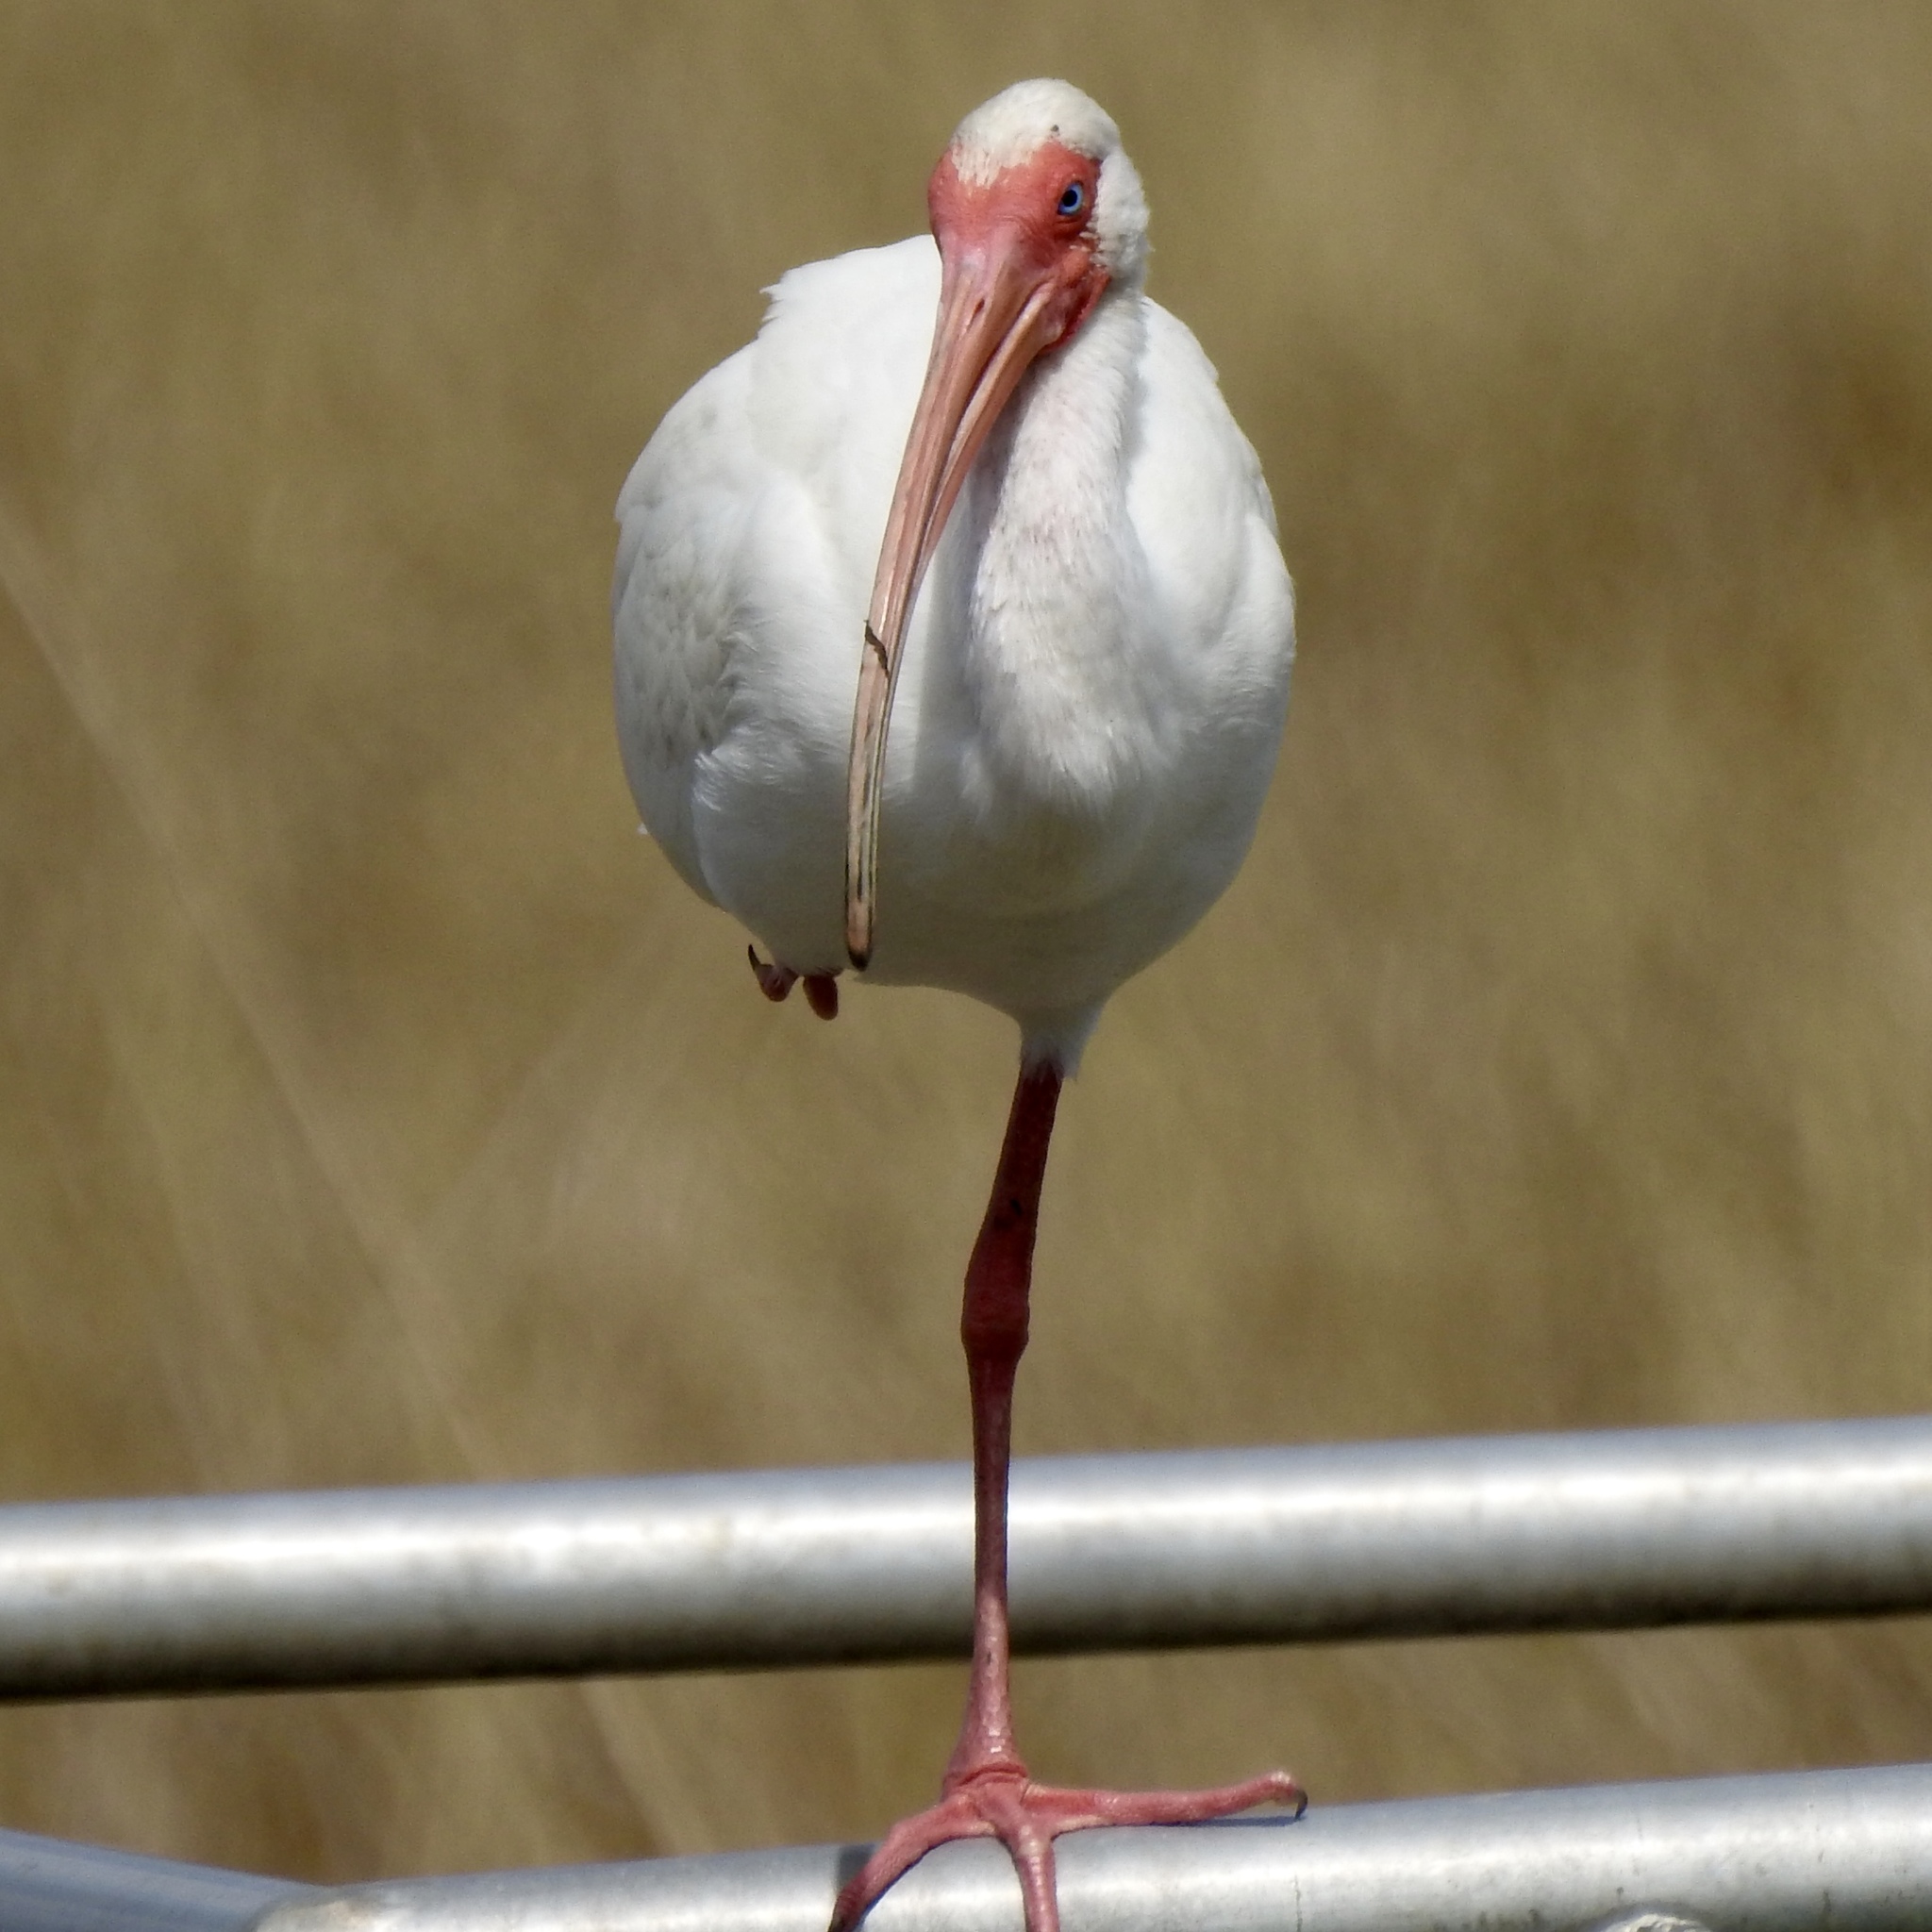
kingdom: Animalia
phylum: Chordata
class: Aves
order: Pelecaniformes
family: Threskiornithidae
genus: Eudocimus
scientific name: Eudocimus albus
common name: White ibis
